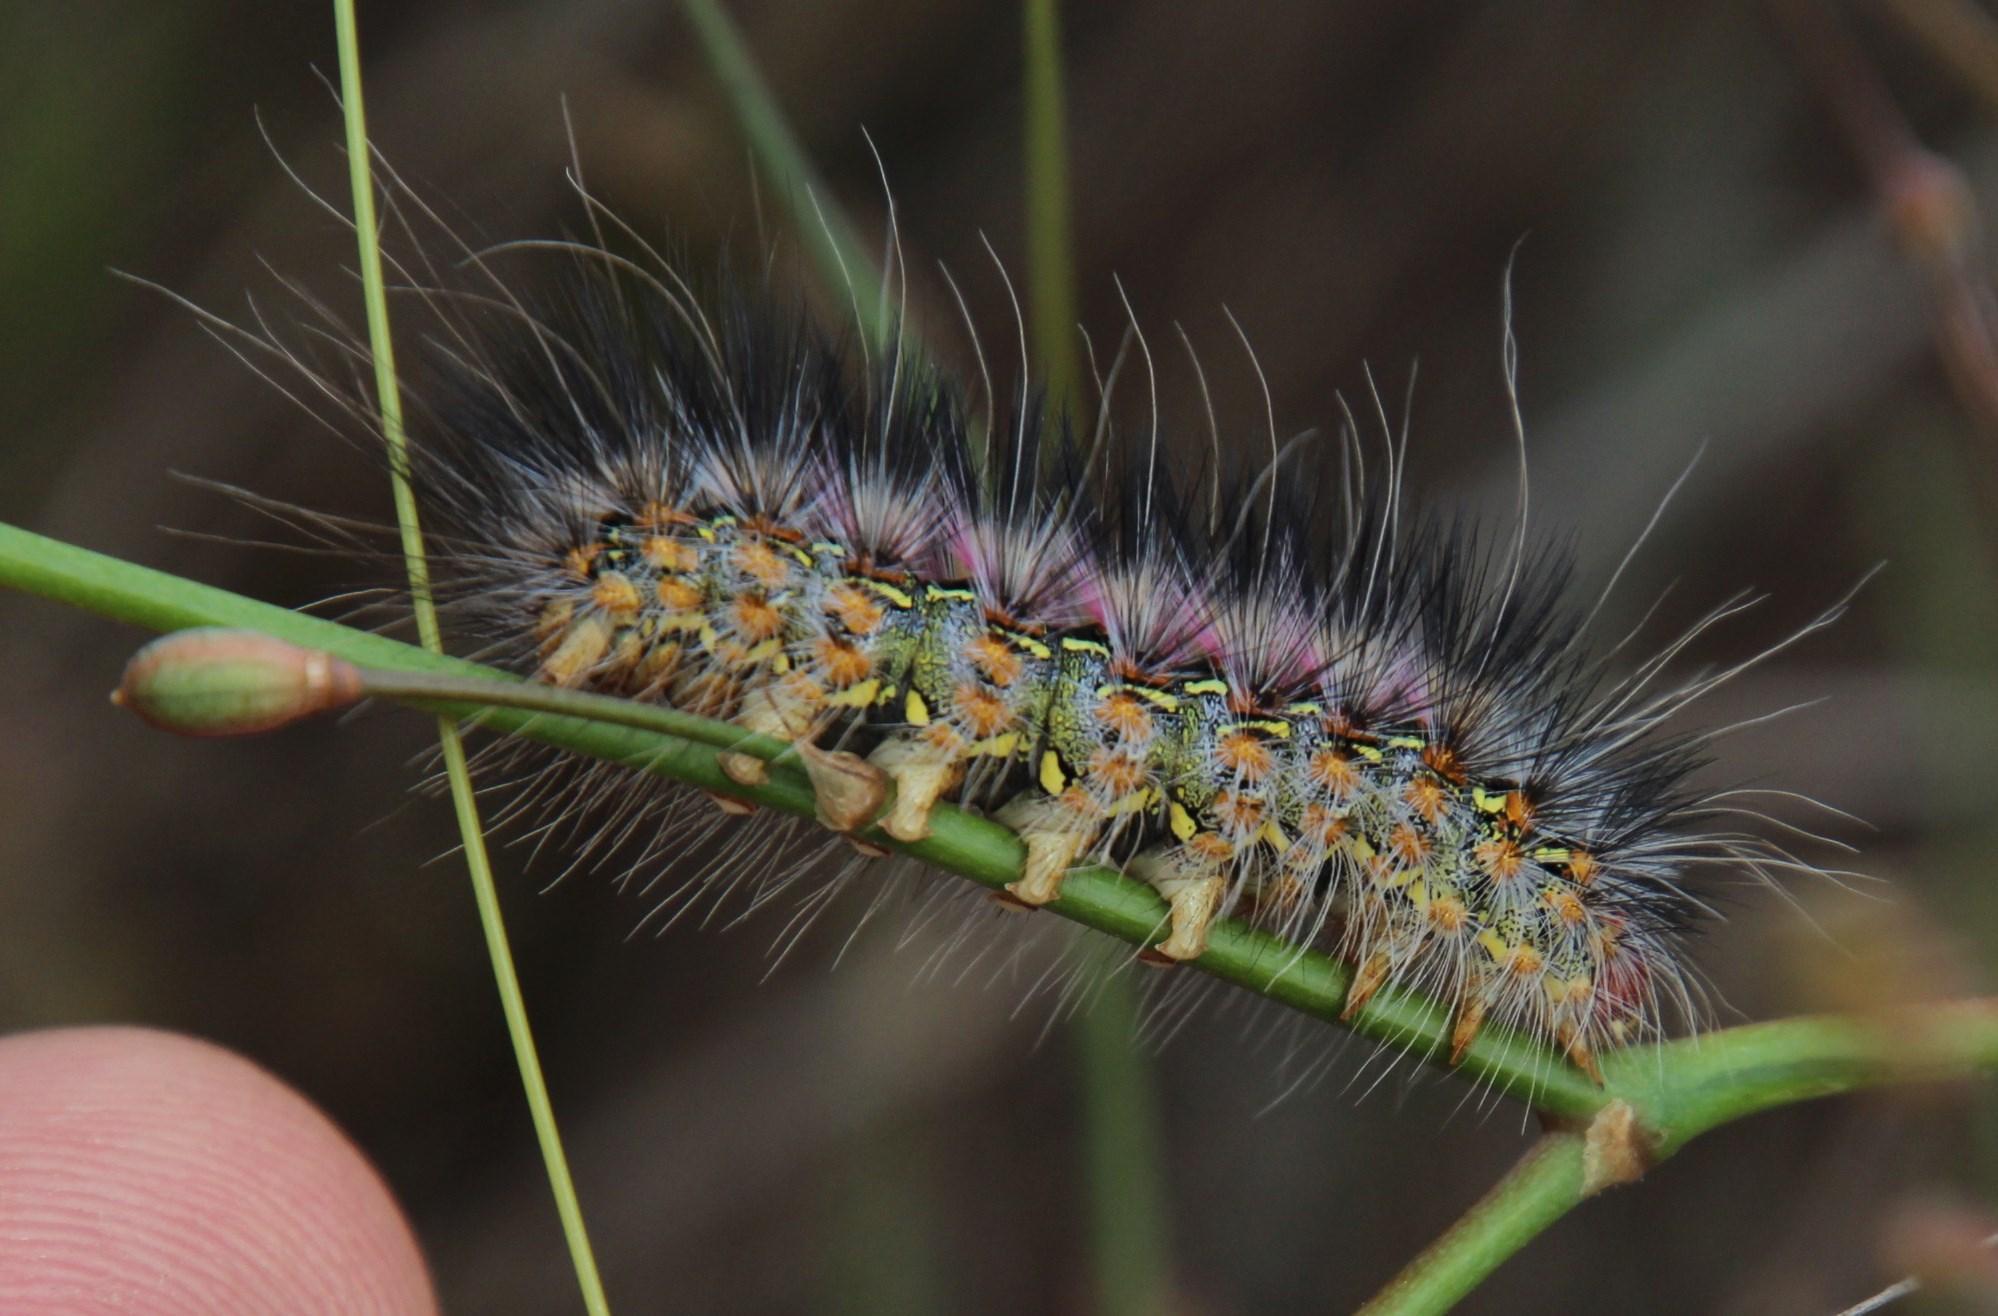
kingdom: Animalia
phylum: Arthropoda
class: Insecta
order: Lepidoptera
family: Erebidae
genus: Paralacydes
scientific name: Paralacydes vocula
